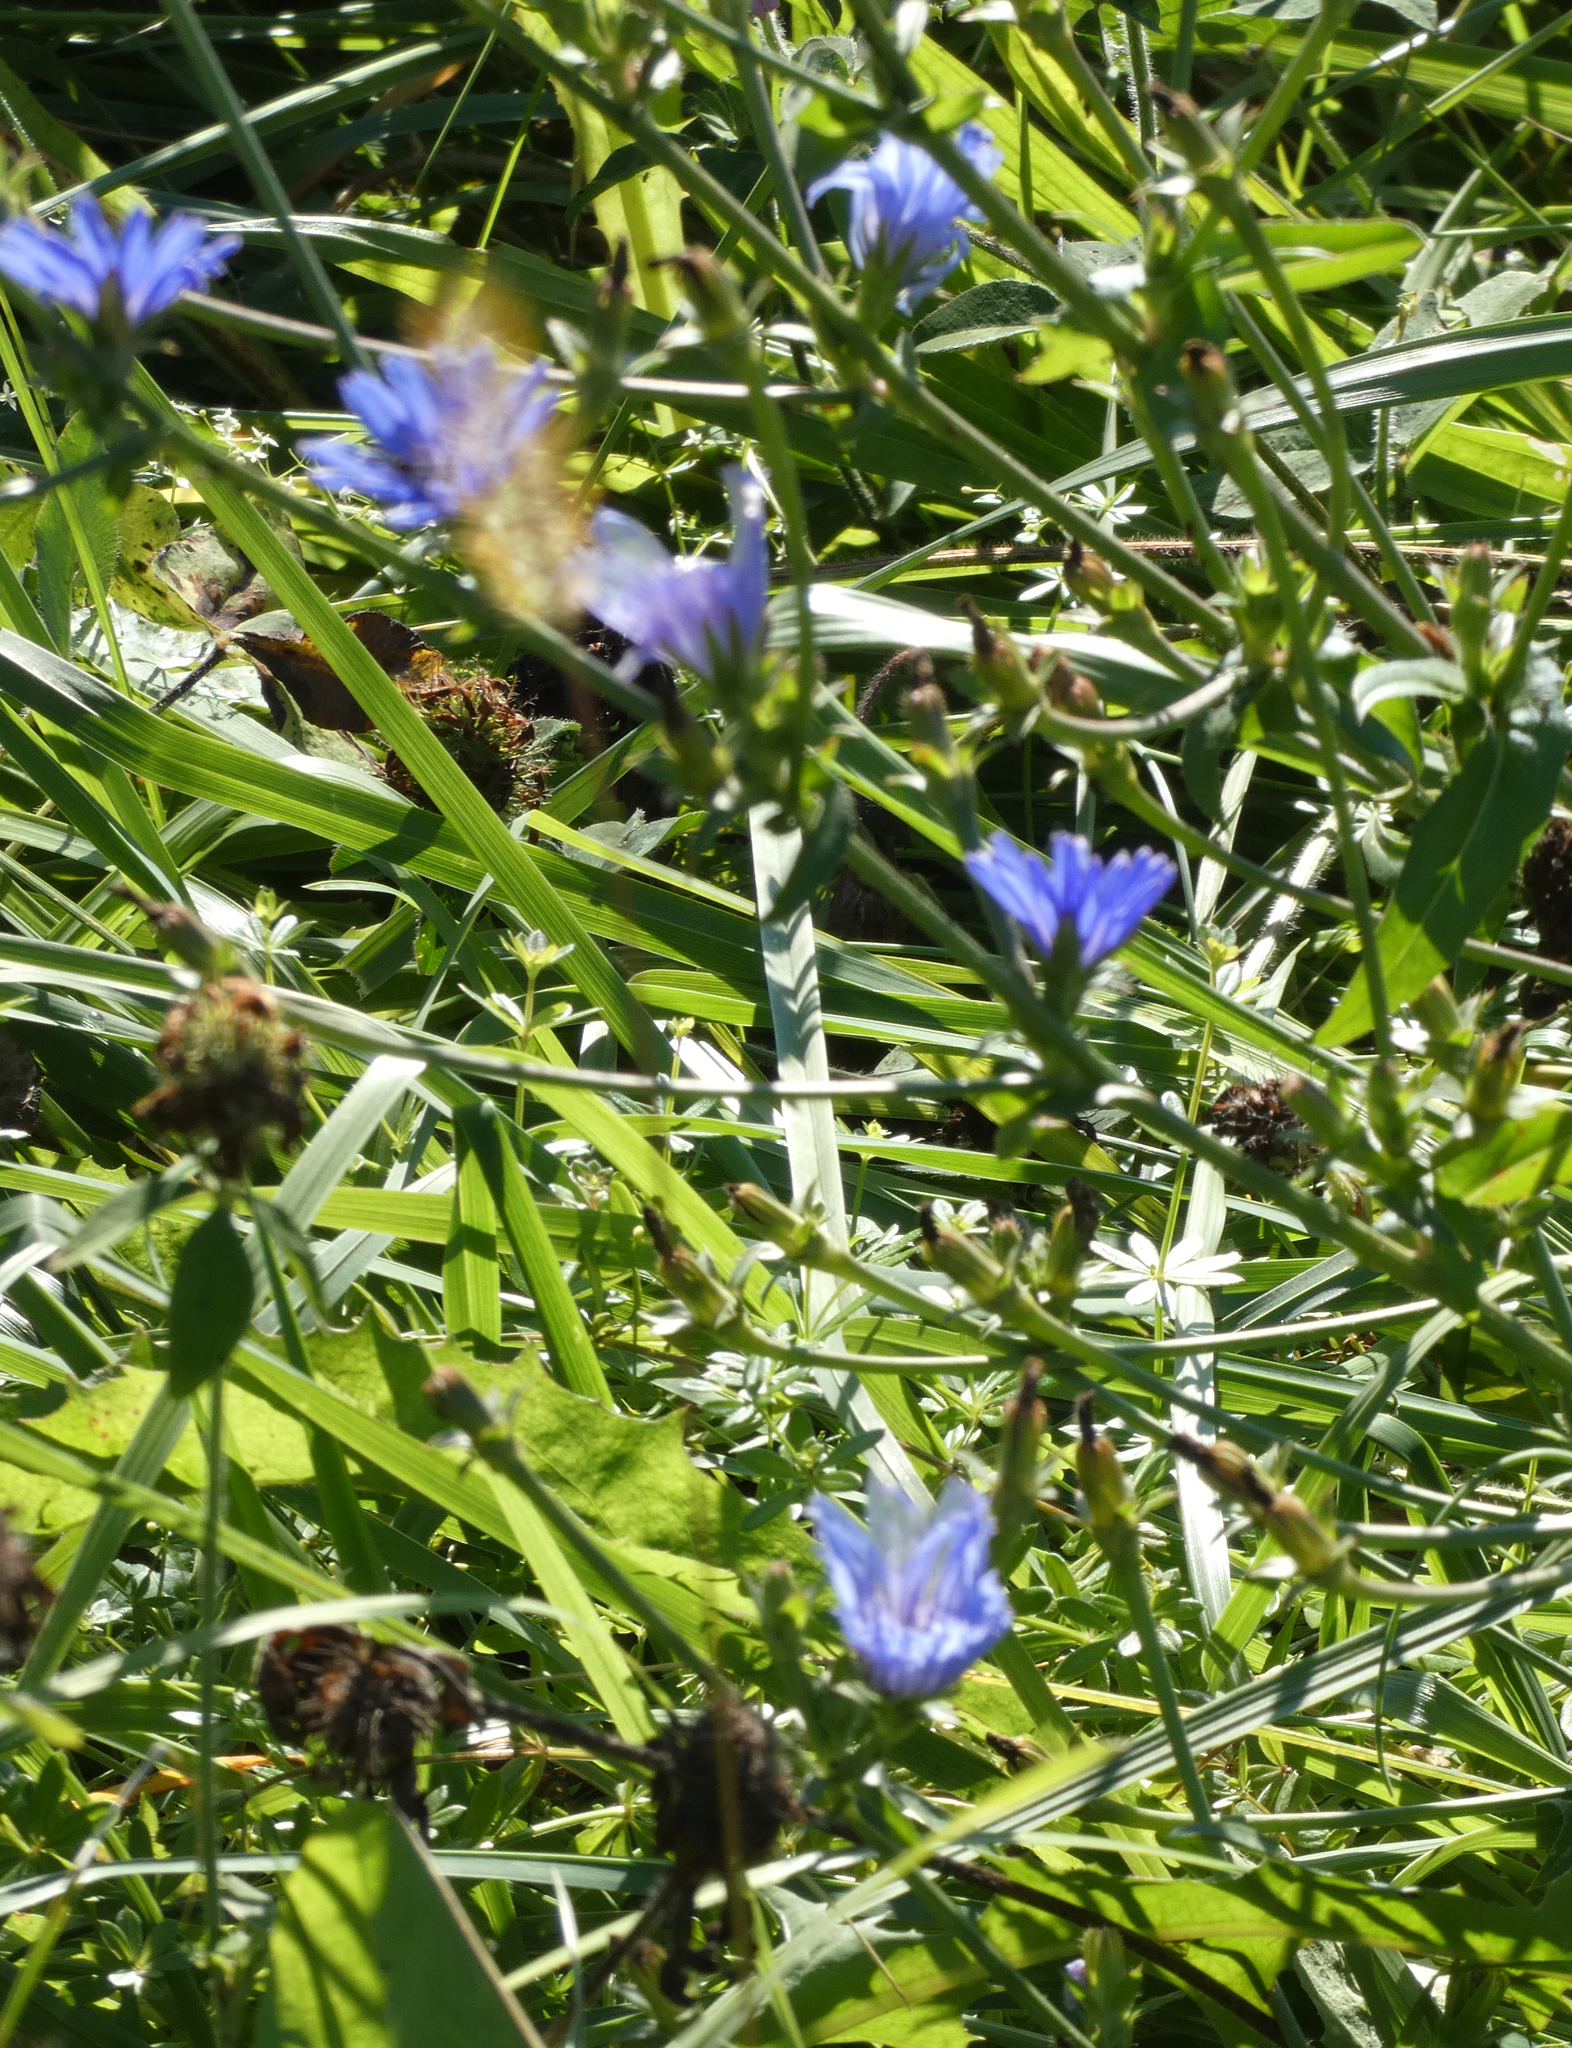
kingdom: Plantae
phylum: Tracheophyta
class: Magnoliopsida
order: Asterales
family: Asteraceae
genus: Cichorium
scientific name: Cichorium intybus
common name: Chicory
